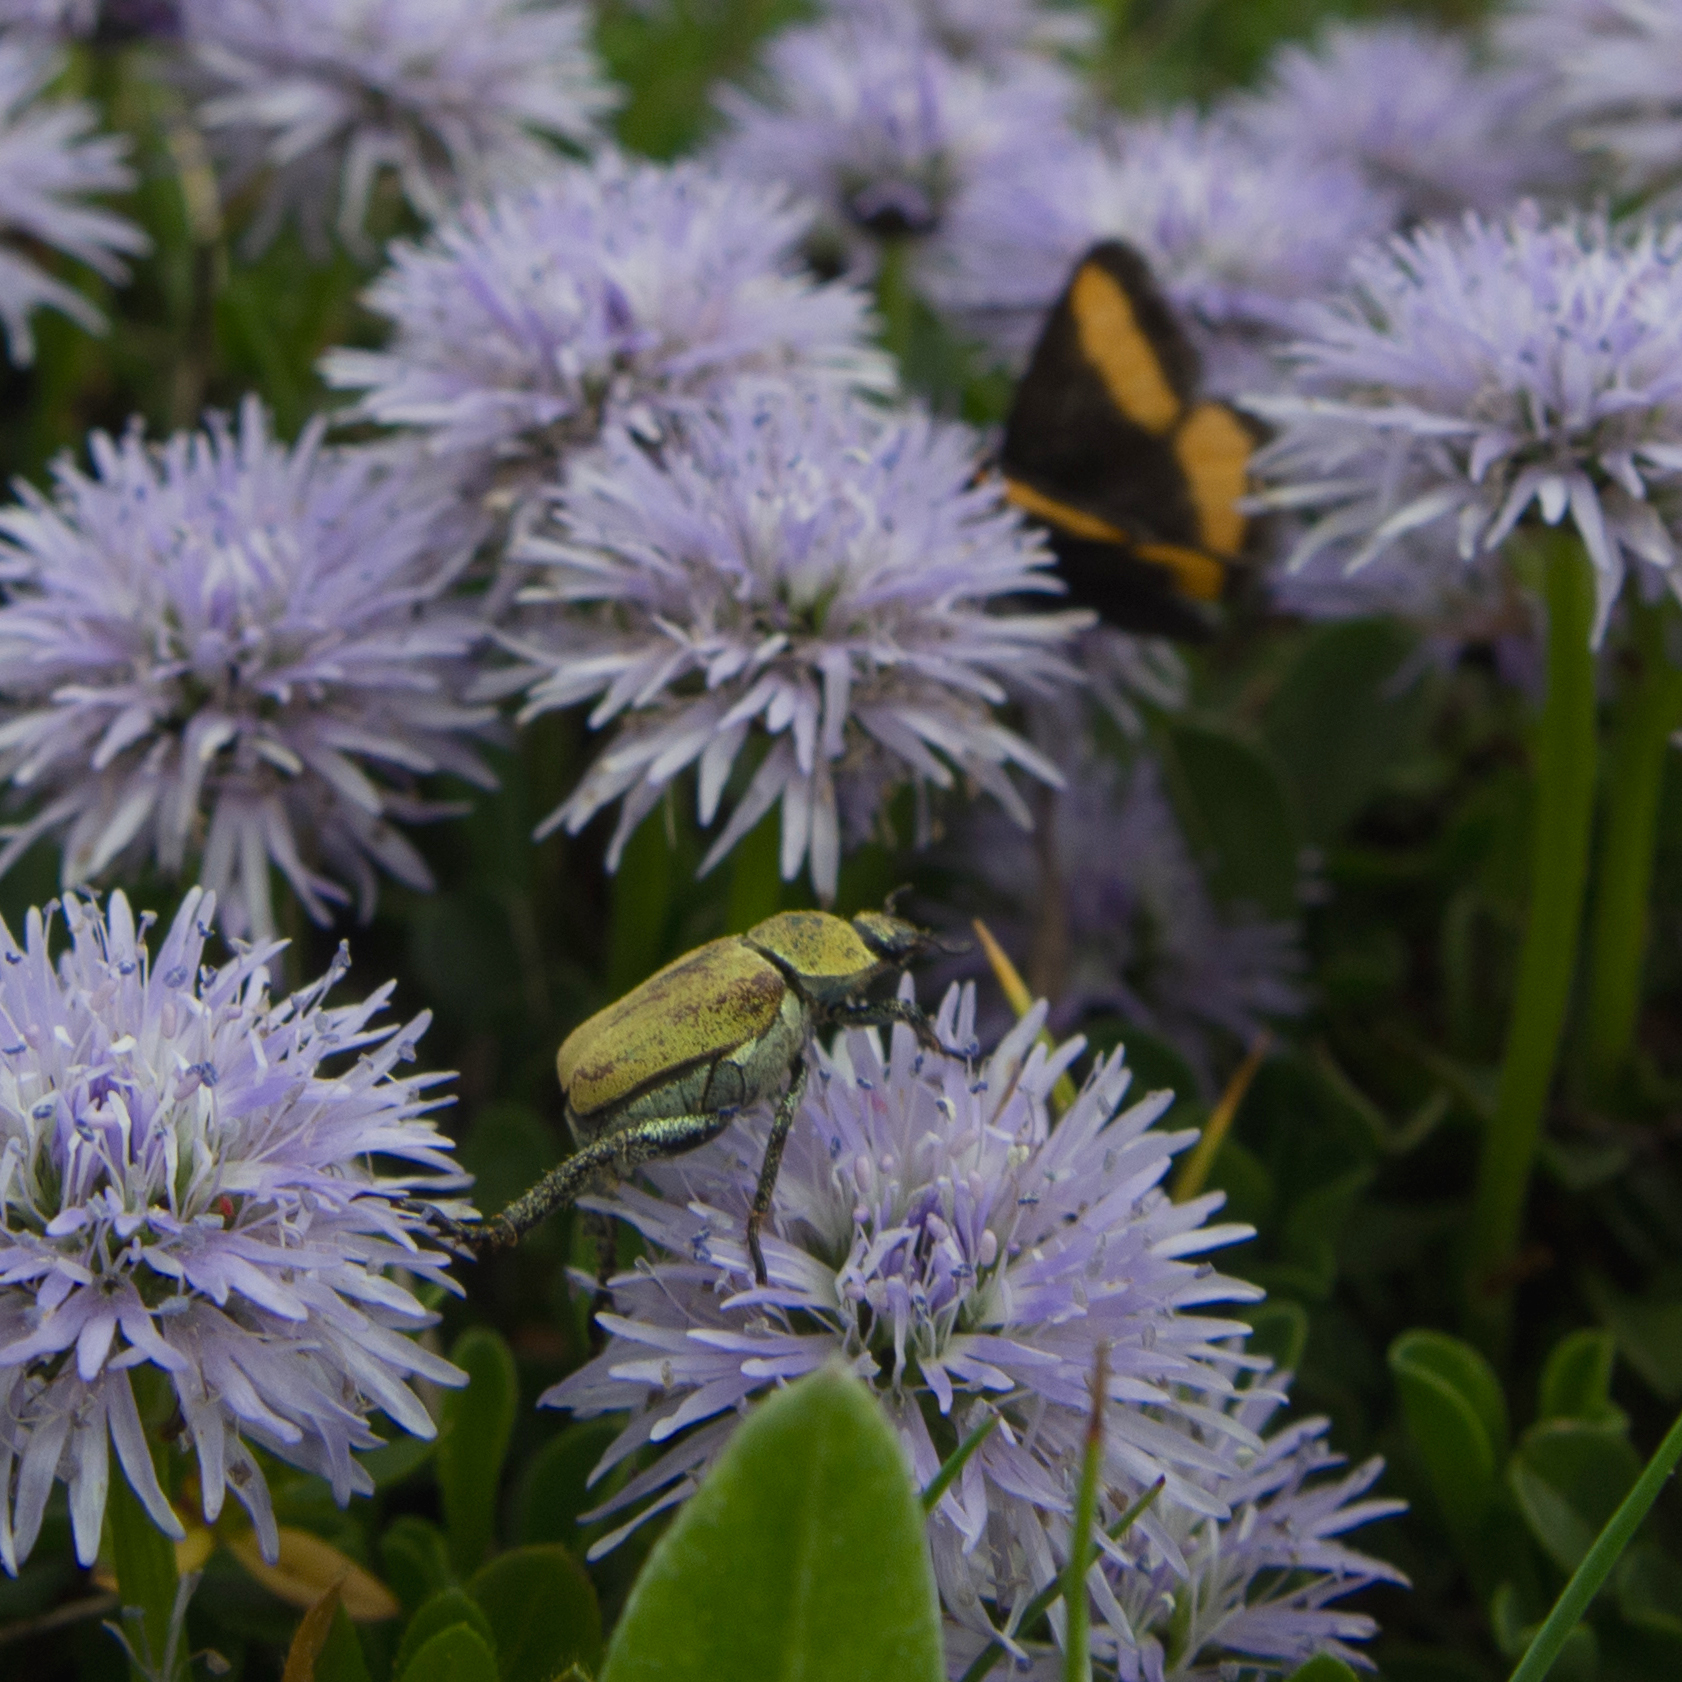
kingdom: Animalia
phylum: Arthropoda
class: Insecta
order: Coleoptera
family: Scarabaeidae
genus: Hoplia
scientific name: Hoplia argentea
